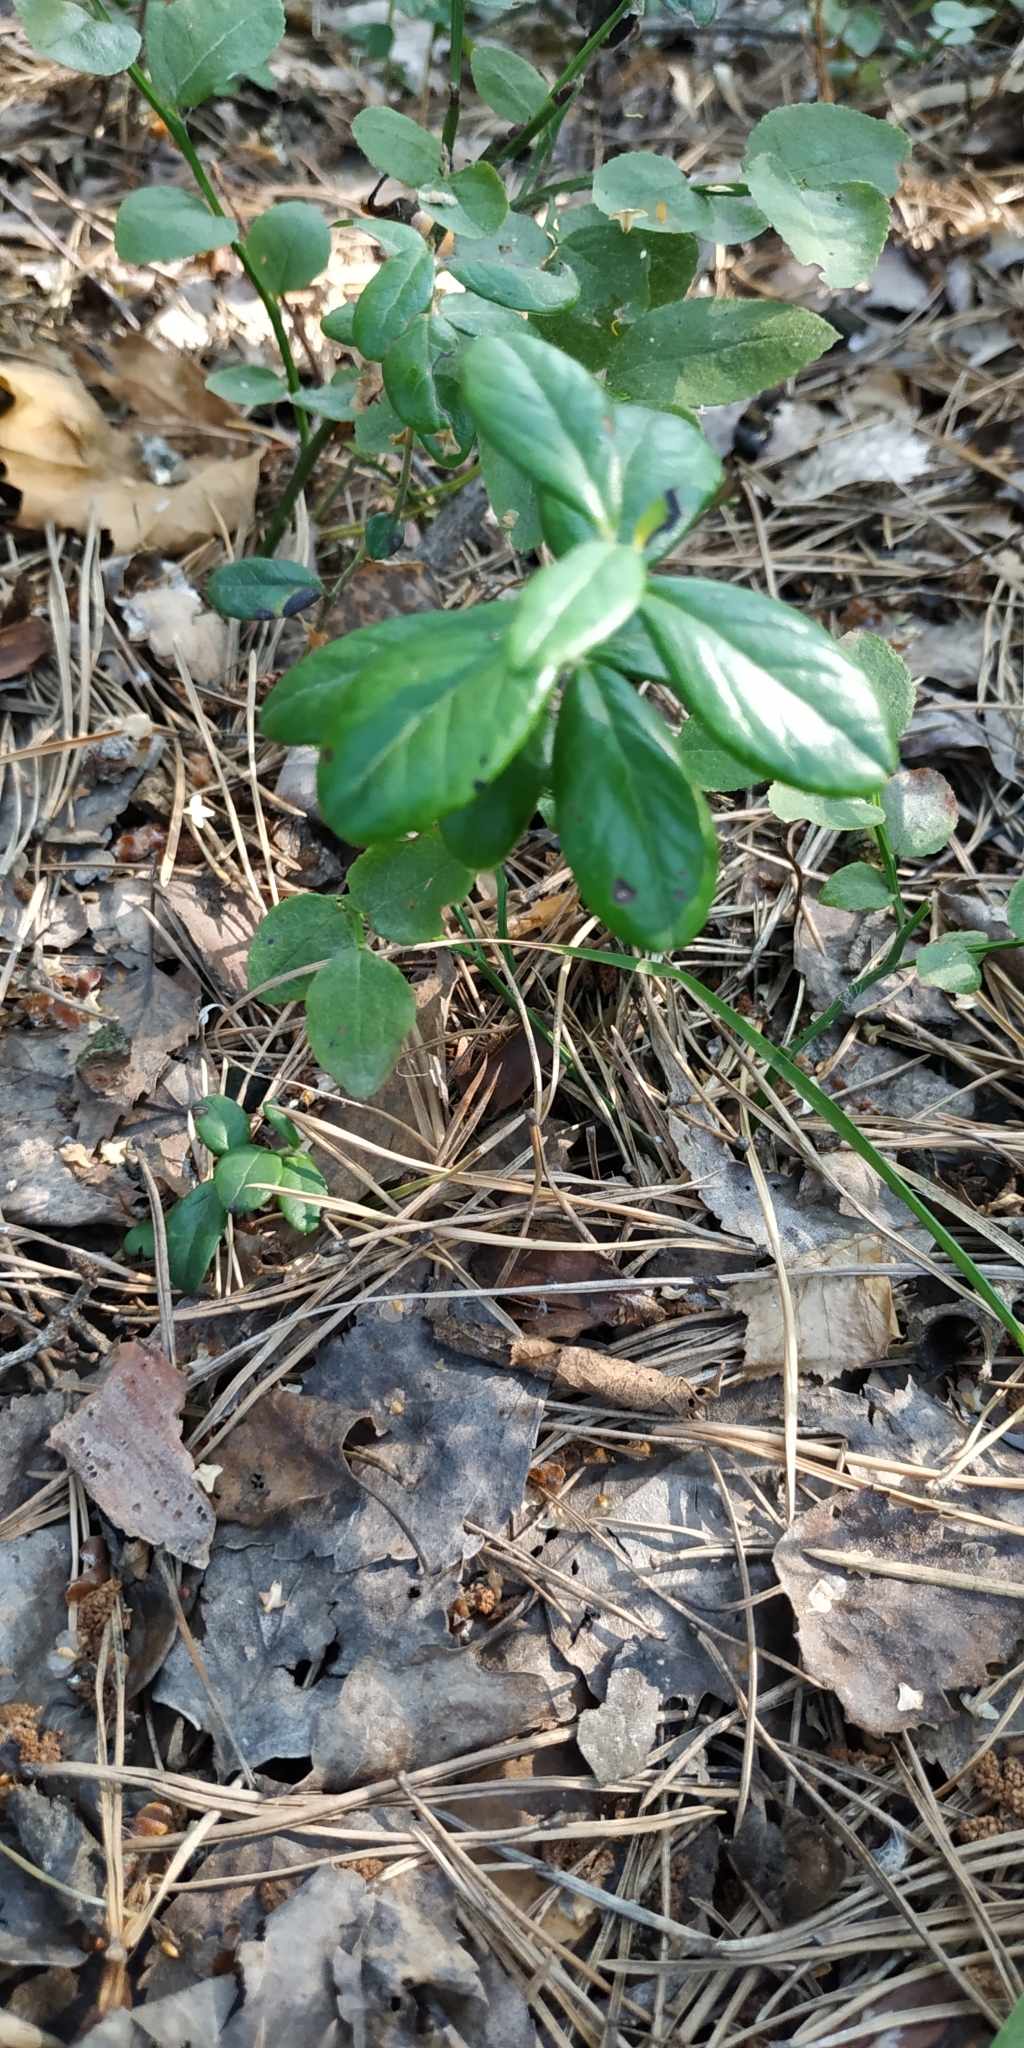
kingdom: Plantae
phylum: Tracheophyta
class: Magnoliopsida
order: Ericales
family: Ericaceae
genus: Vaccinium
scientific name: Vaccinium vitis-idaea
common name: Cowberry
